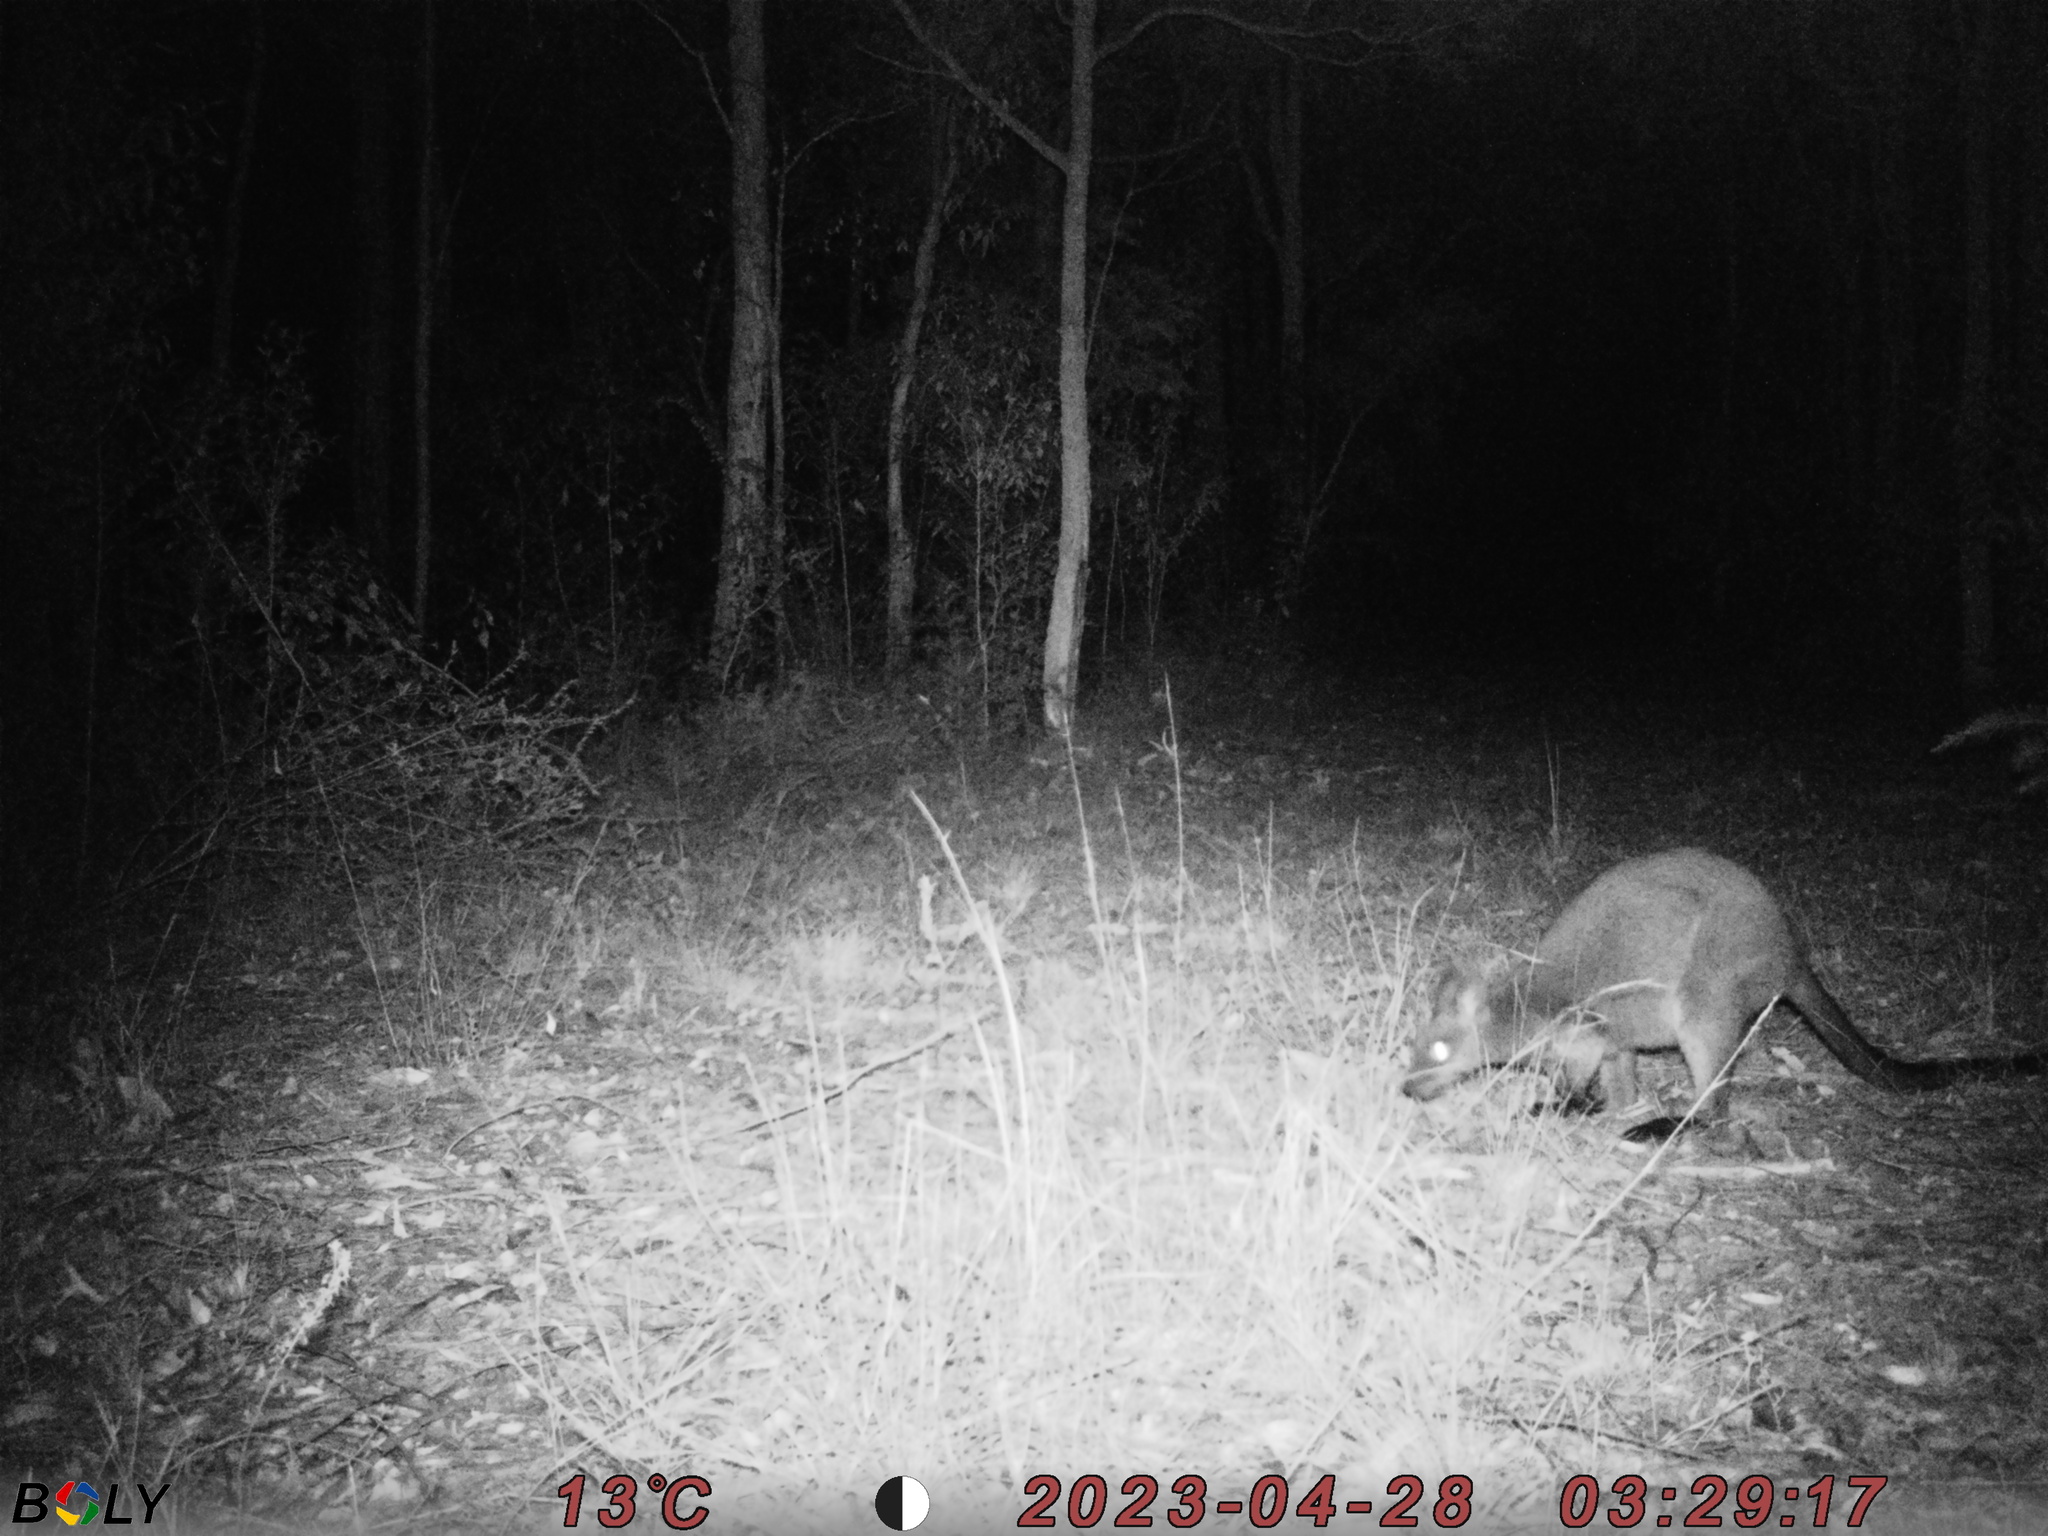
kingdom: Animalia
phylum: Chordata
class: Mammalia
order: Diprotodontia
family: Macropodidae
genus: Wallabia
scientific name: Wallabia bicolor
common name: Swamp wallaby
